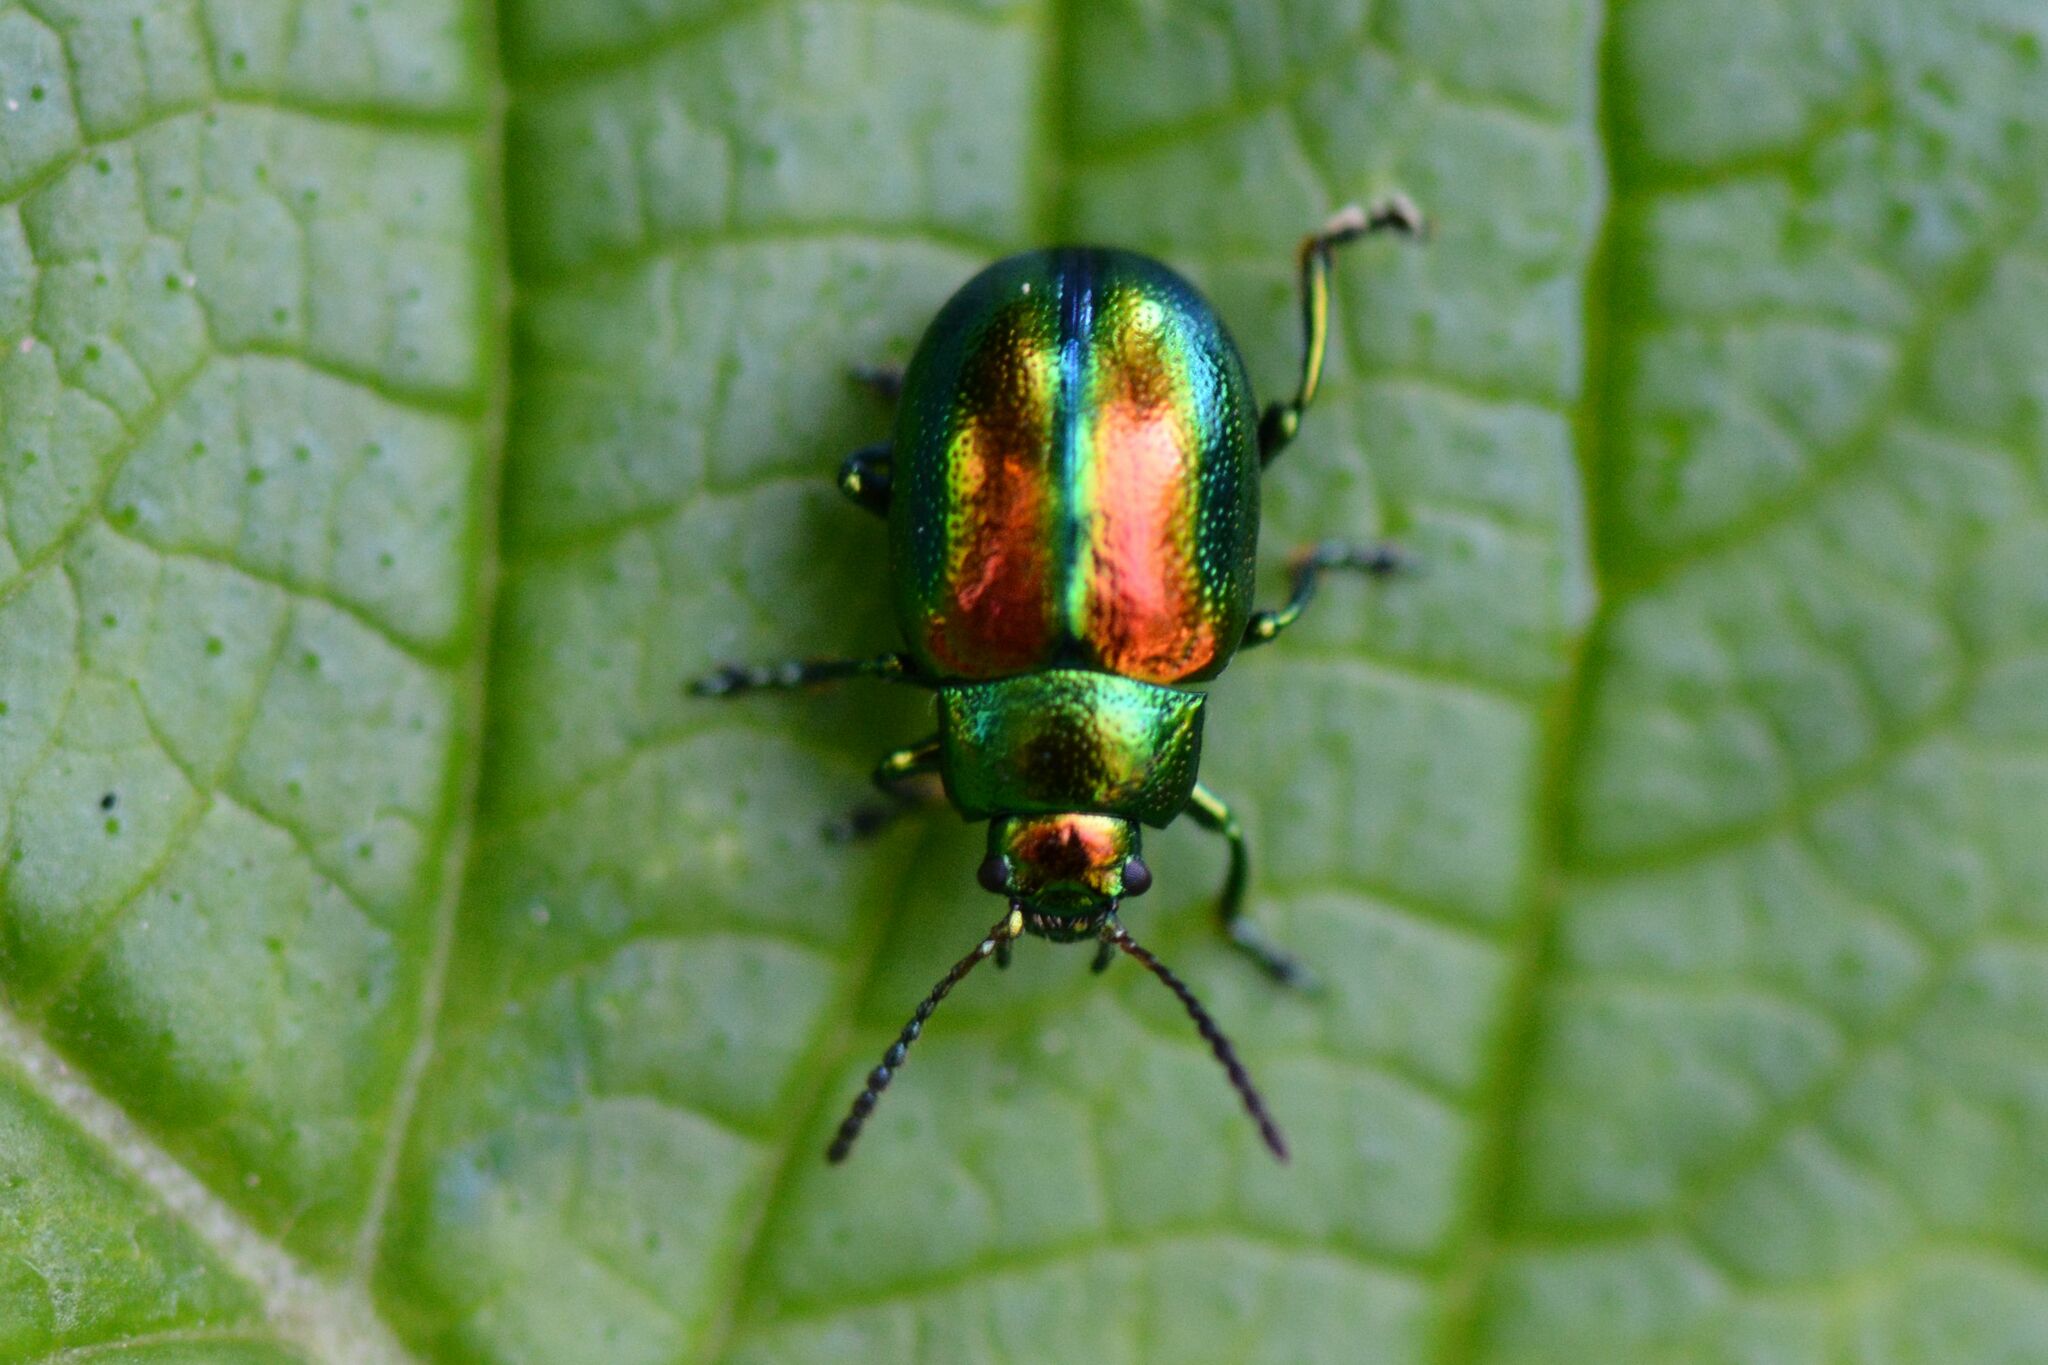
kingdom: Animalia
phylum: Arthropoda
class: Insecta
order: Coleoptera
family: Chrysomelidae
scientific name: Chrysomelidae
